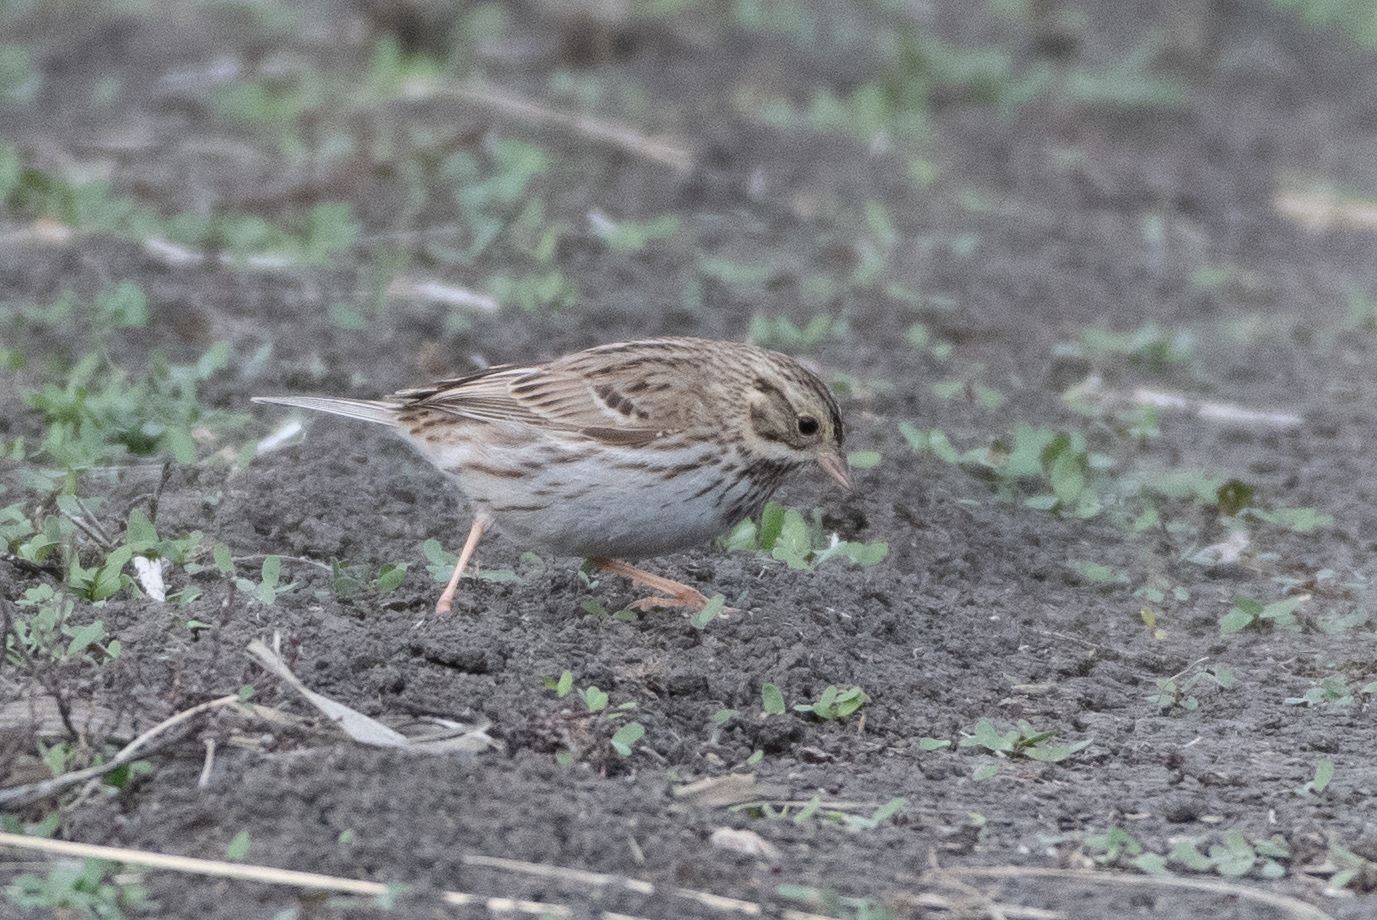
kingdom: Animalia
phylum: Chordata
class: Aves
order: Passeriformes
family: Passerellidae
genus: Passerculus
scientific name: Passerculus sandwichensis
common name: Savannah sparrow
